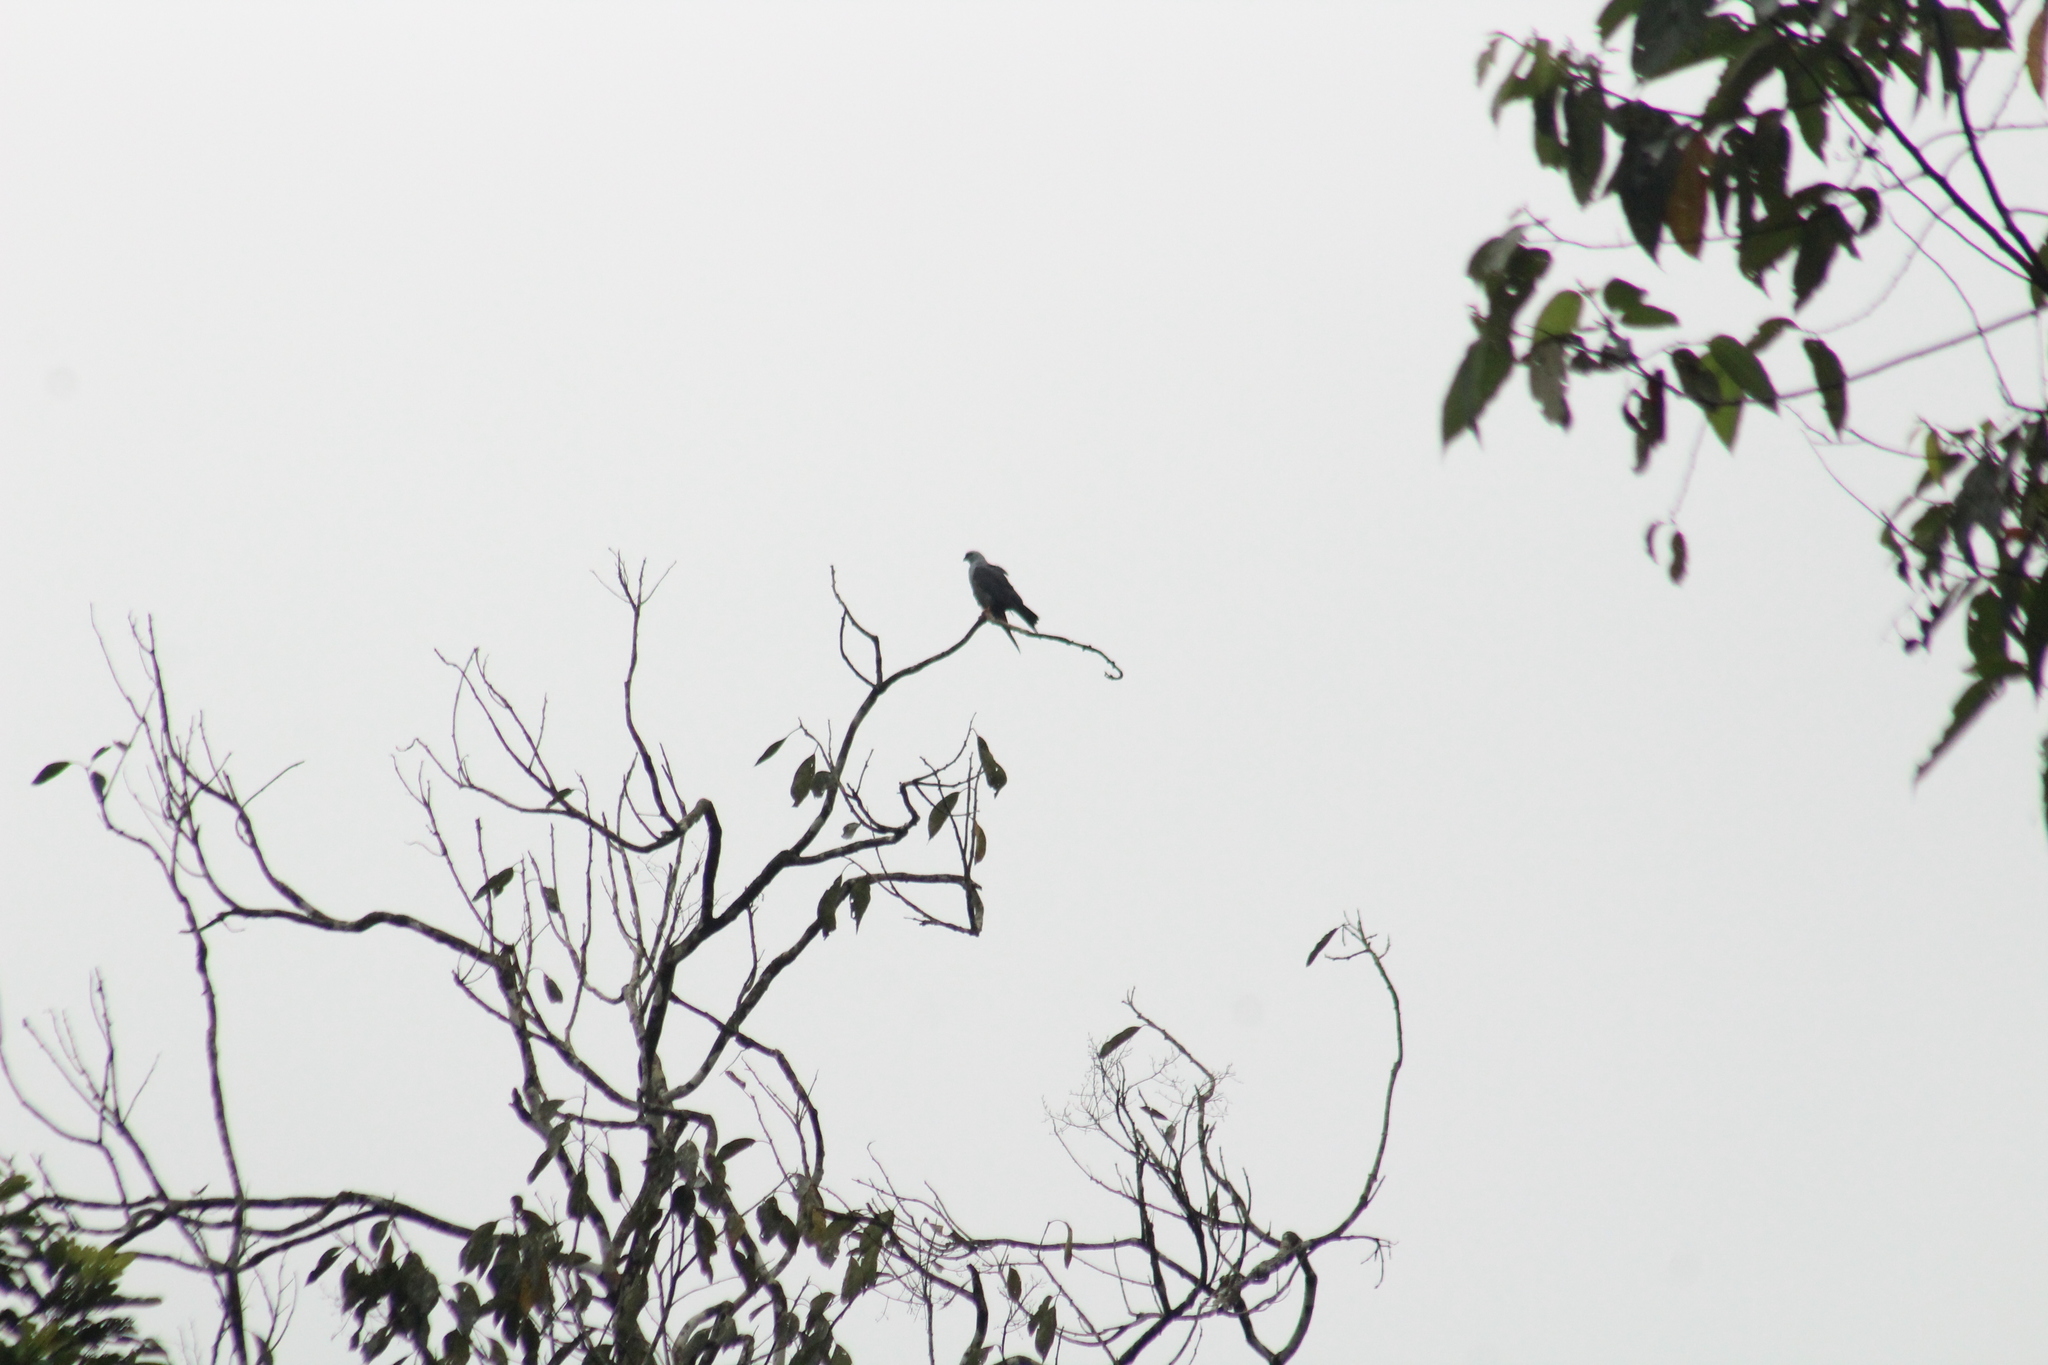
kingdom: Animalia
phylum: Chordata
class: Aves
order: Accipitriformes
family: Accipitridae
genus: Ictinia
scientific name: Ictinia plumbea
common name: Plumbeous kite
